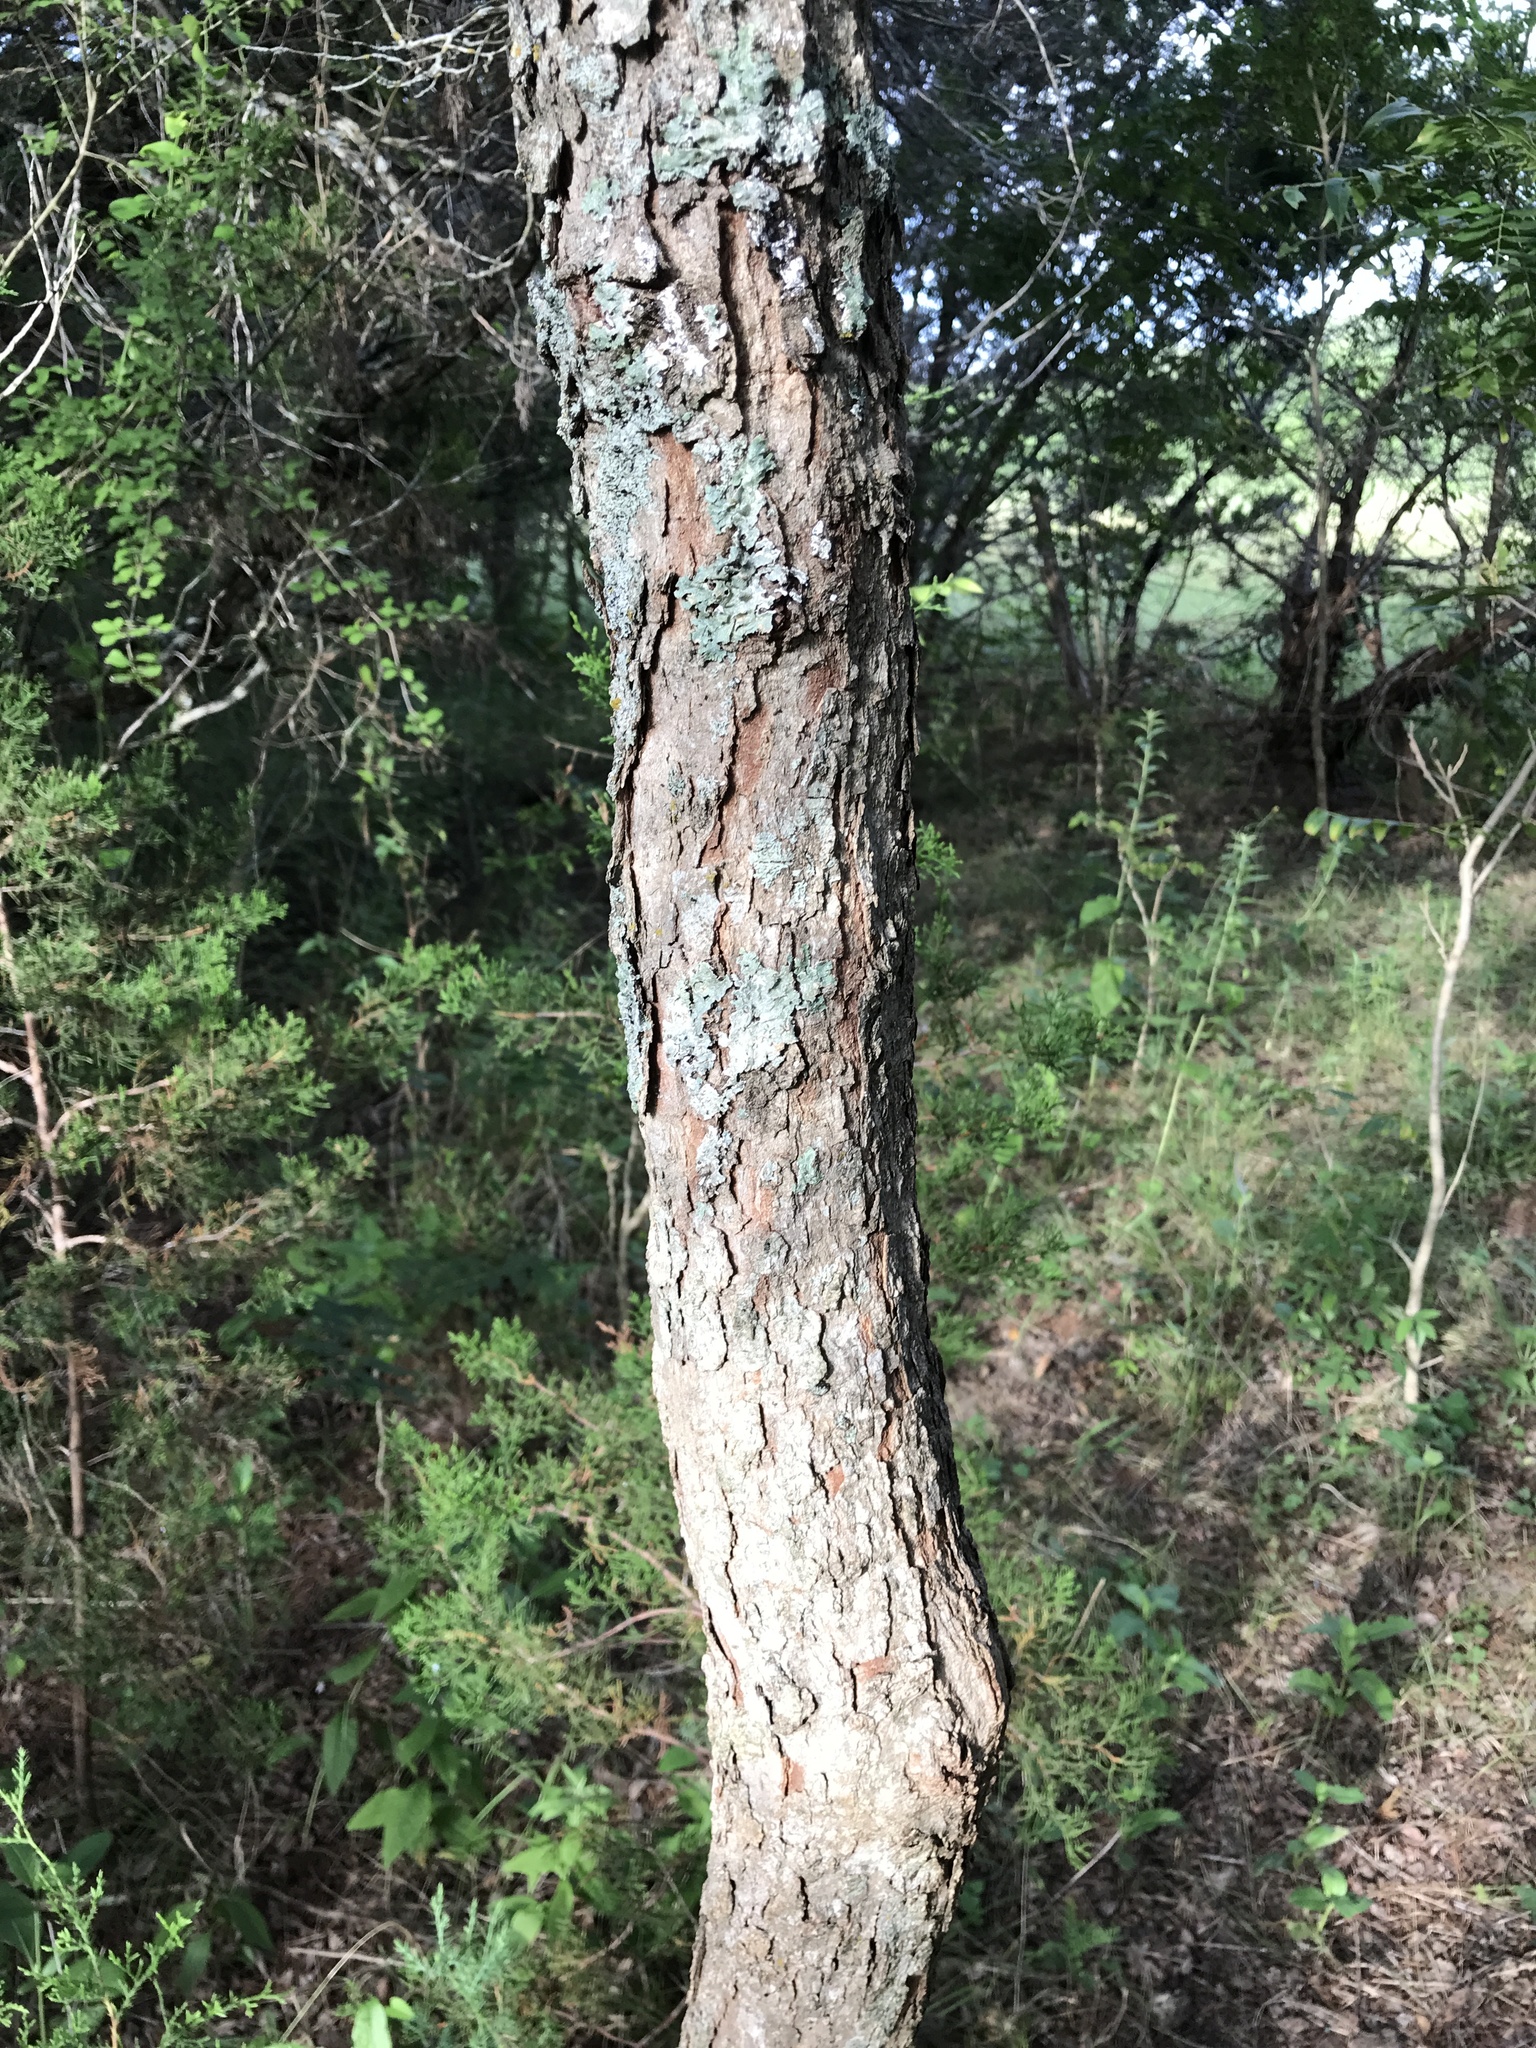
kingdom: Plantae
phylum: Tracheophyta
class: Magnoliopsida
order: Sapindales
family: Sapindaceae
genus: Sapindus
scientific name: Sapindus drummondii
